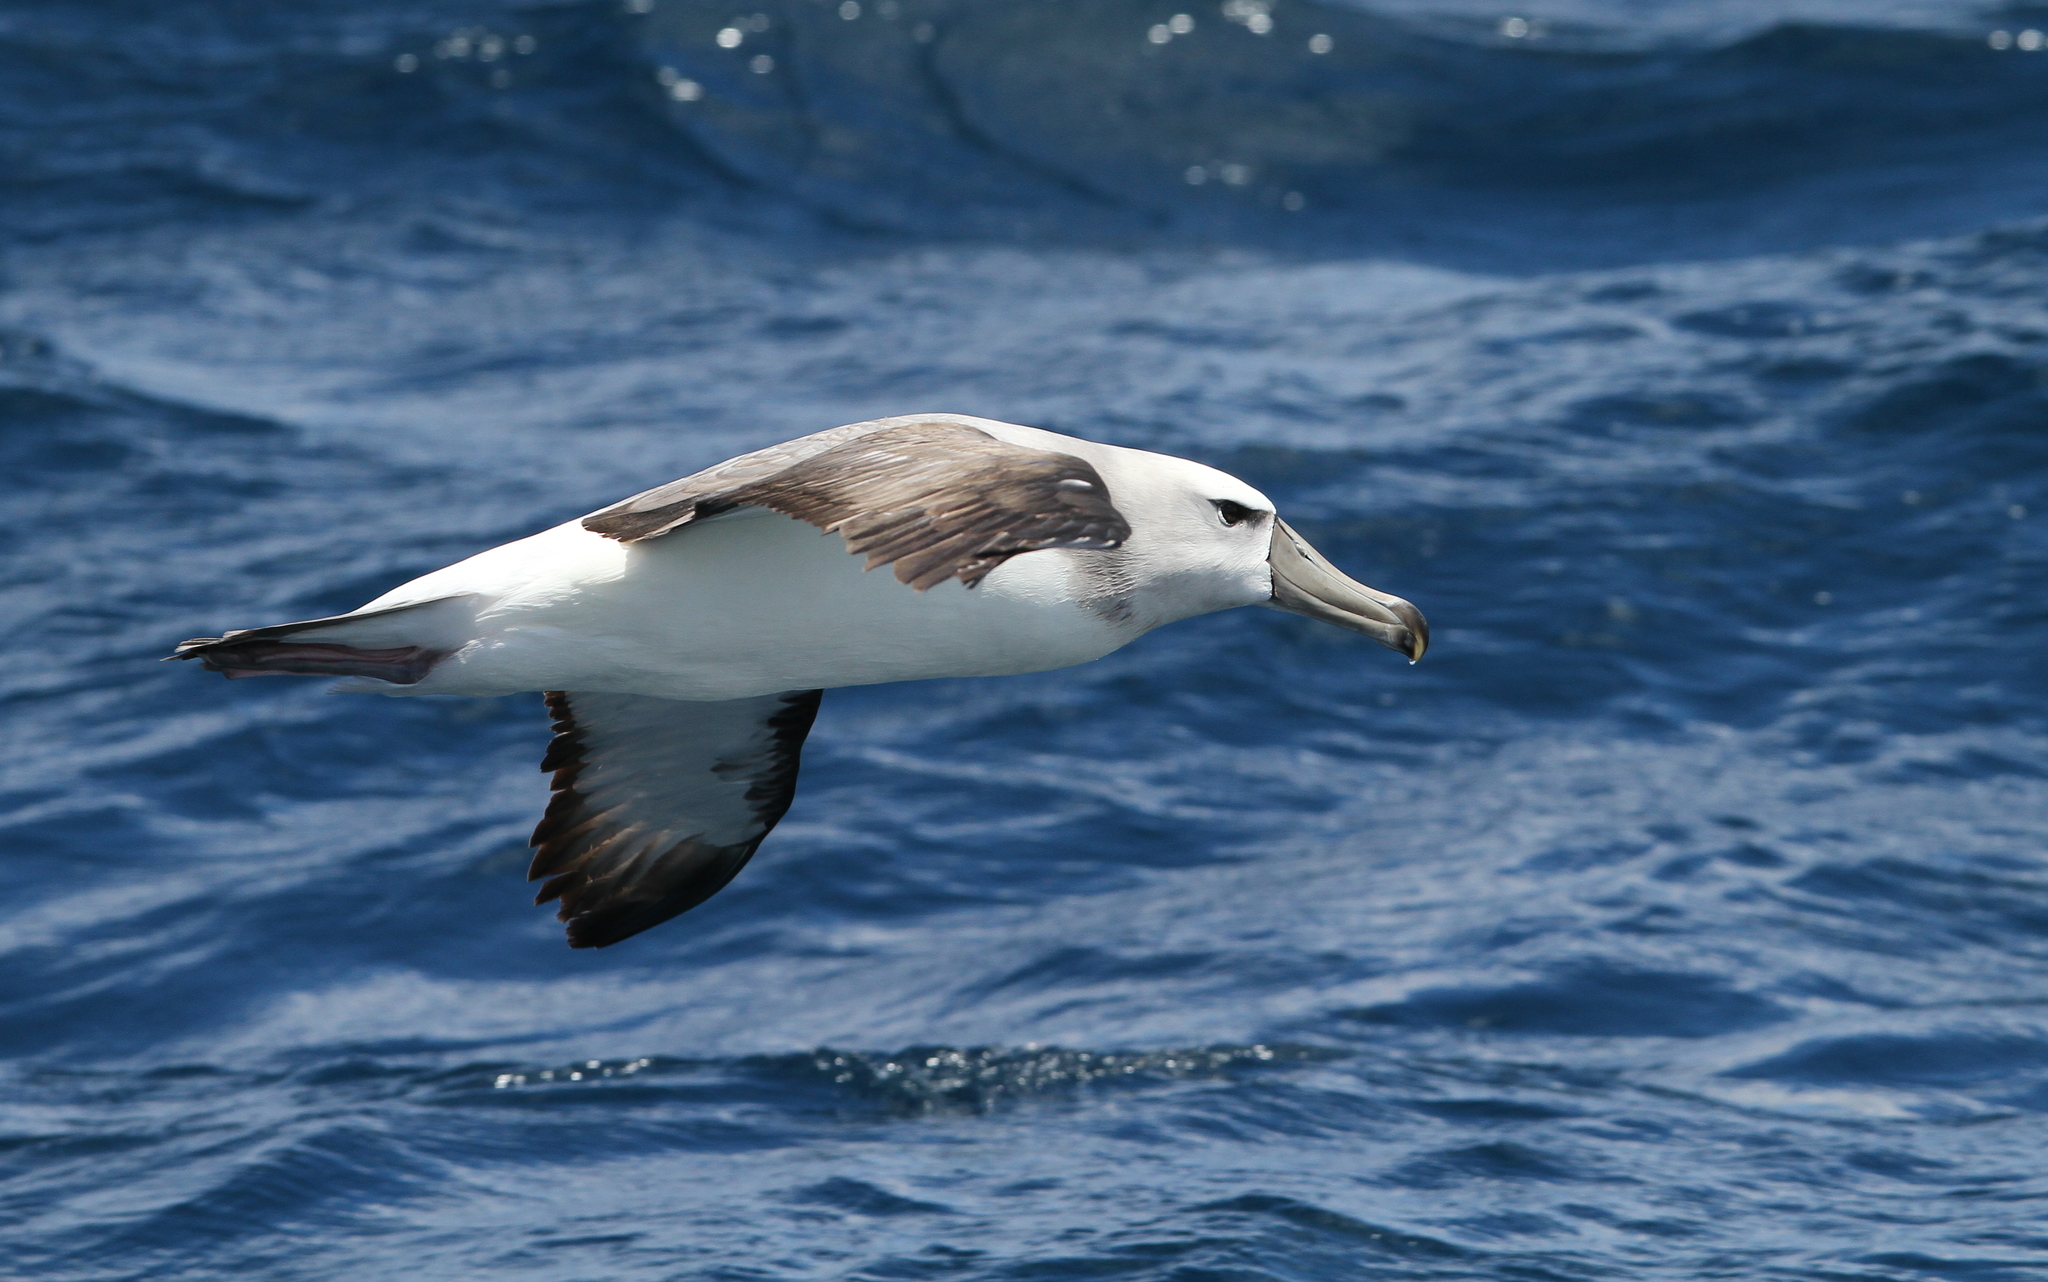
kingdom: Animalia
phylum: Chordata
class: Aves
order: Procellariiformes
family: Diomedeidae
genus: Thalassarche
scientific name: Thalassarche cauta
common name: Shy albatross
